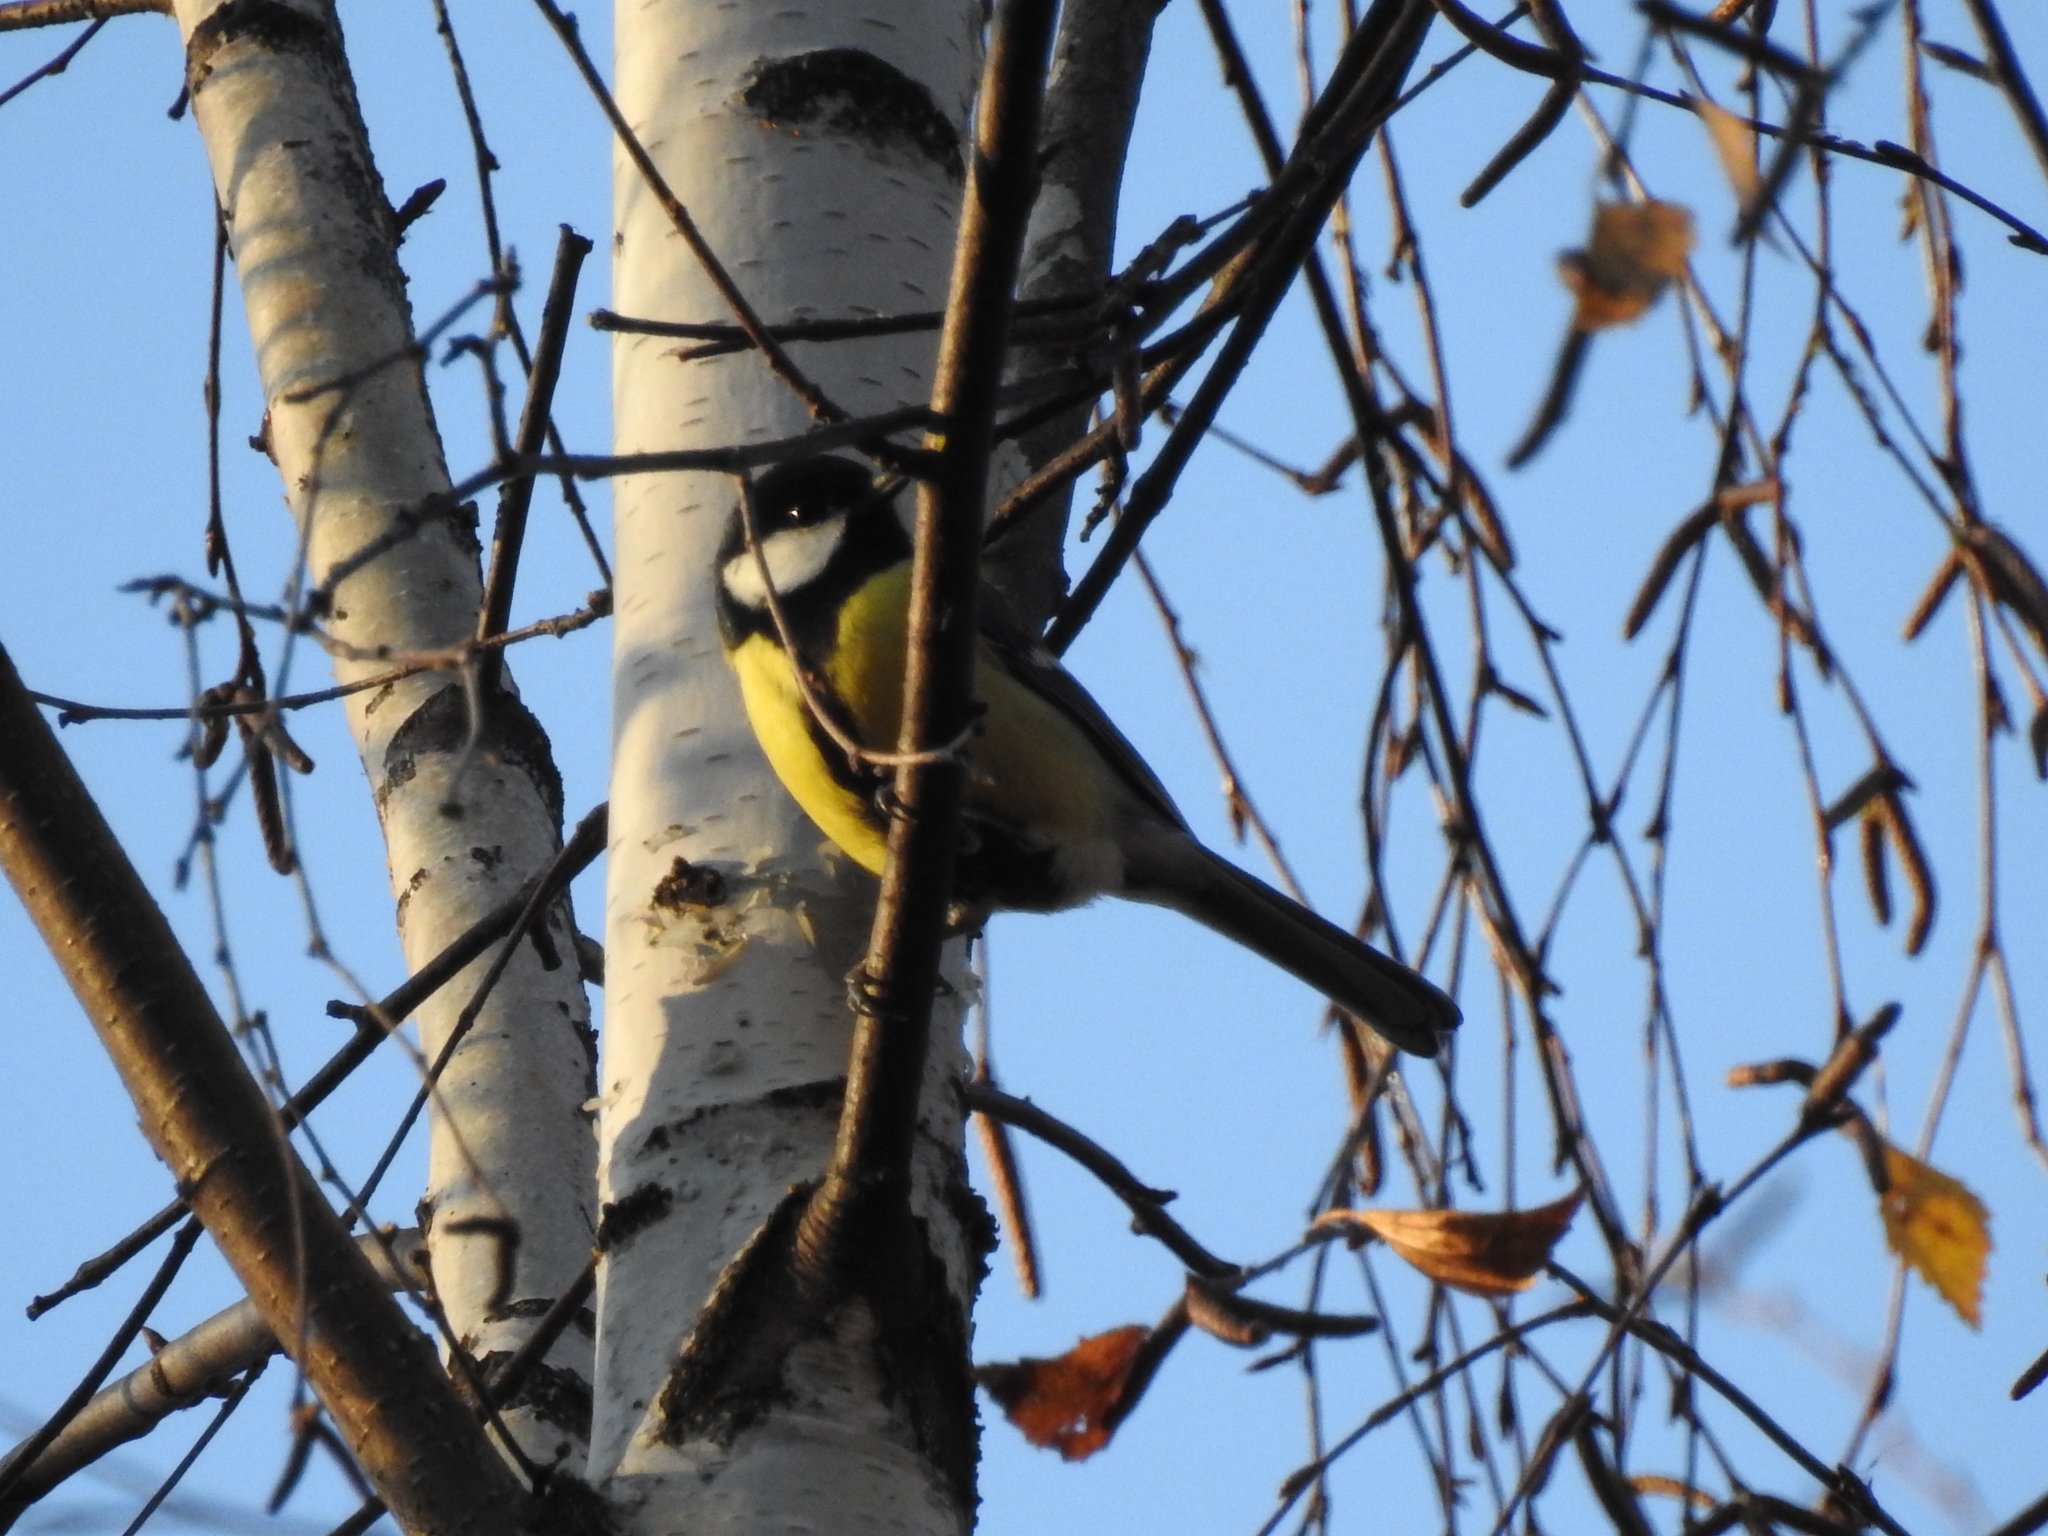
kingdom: Animalia
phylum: Chordata
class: Aves
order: Passeriformes
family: Paridae
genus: Parus
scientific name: Parus major
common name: Great tit
